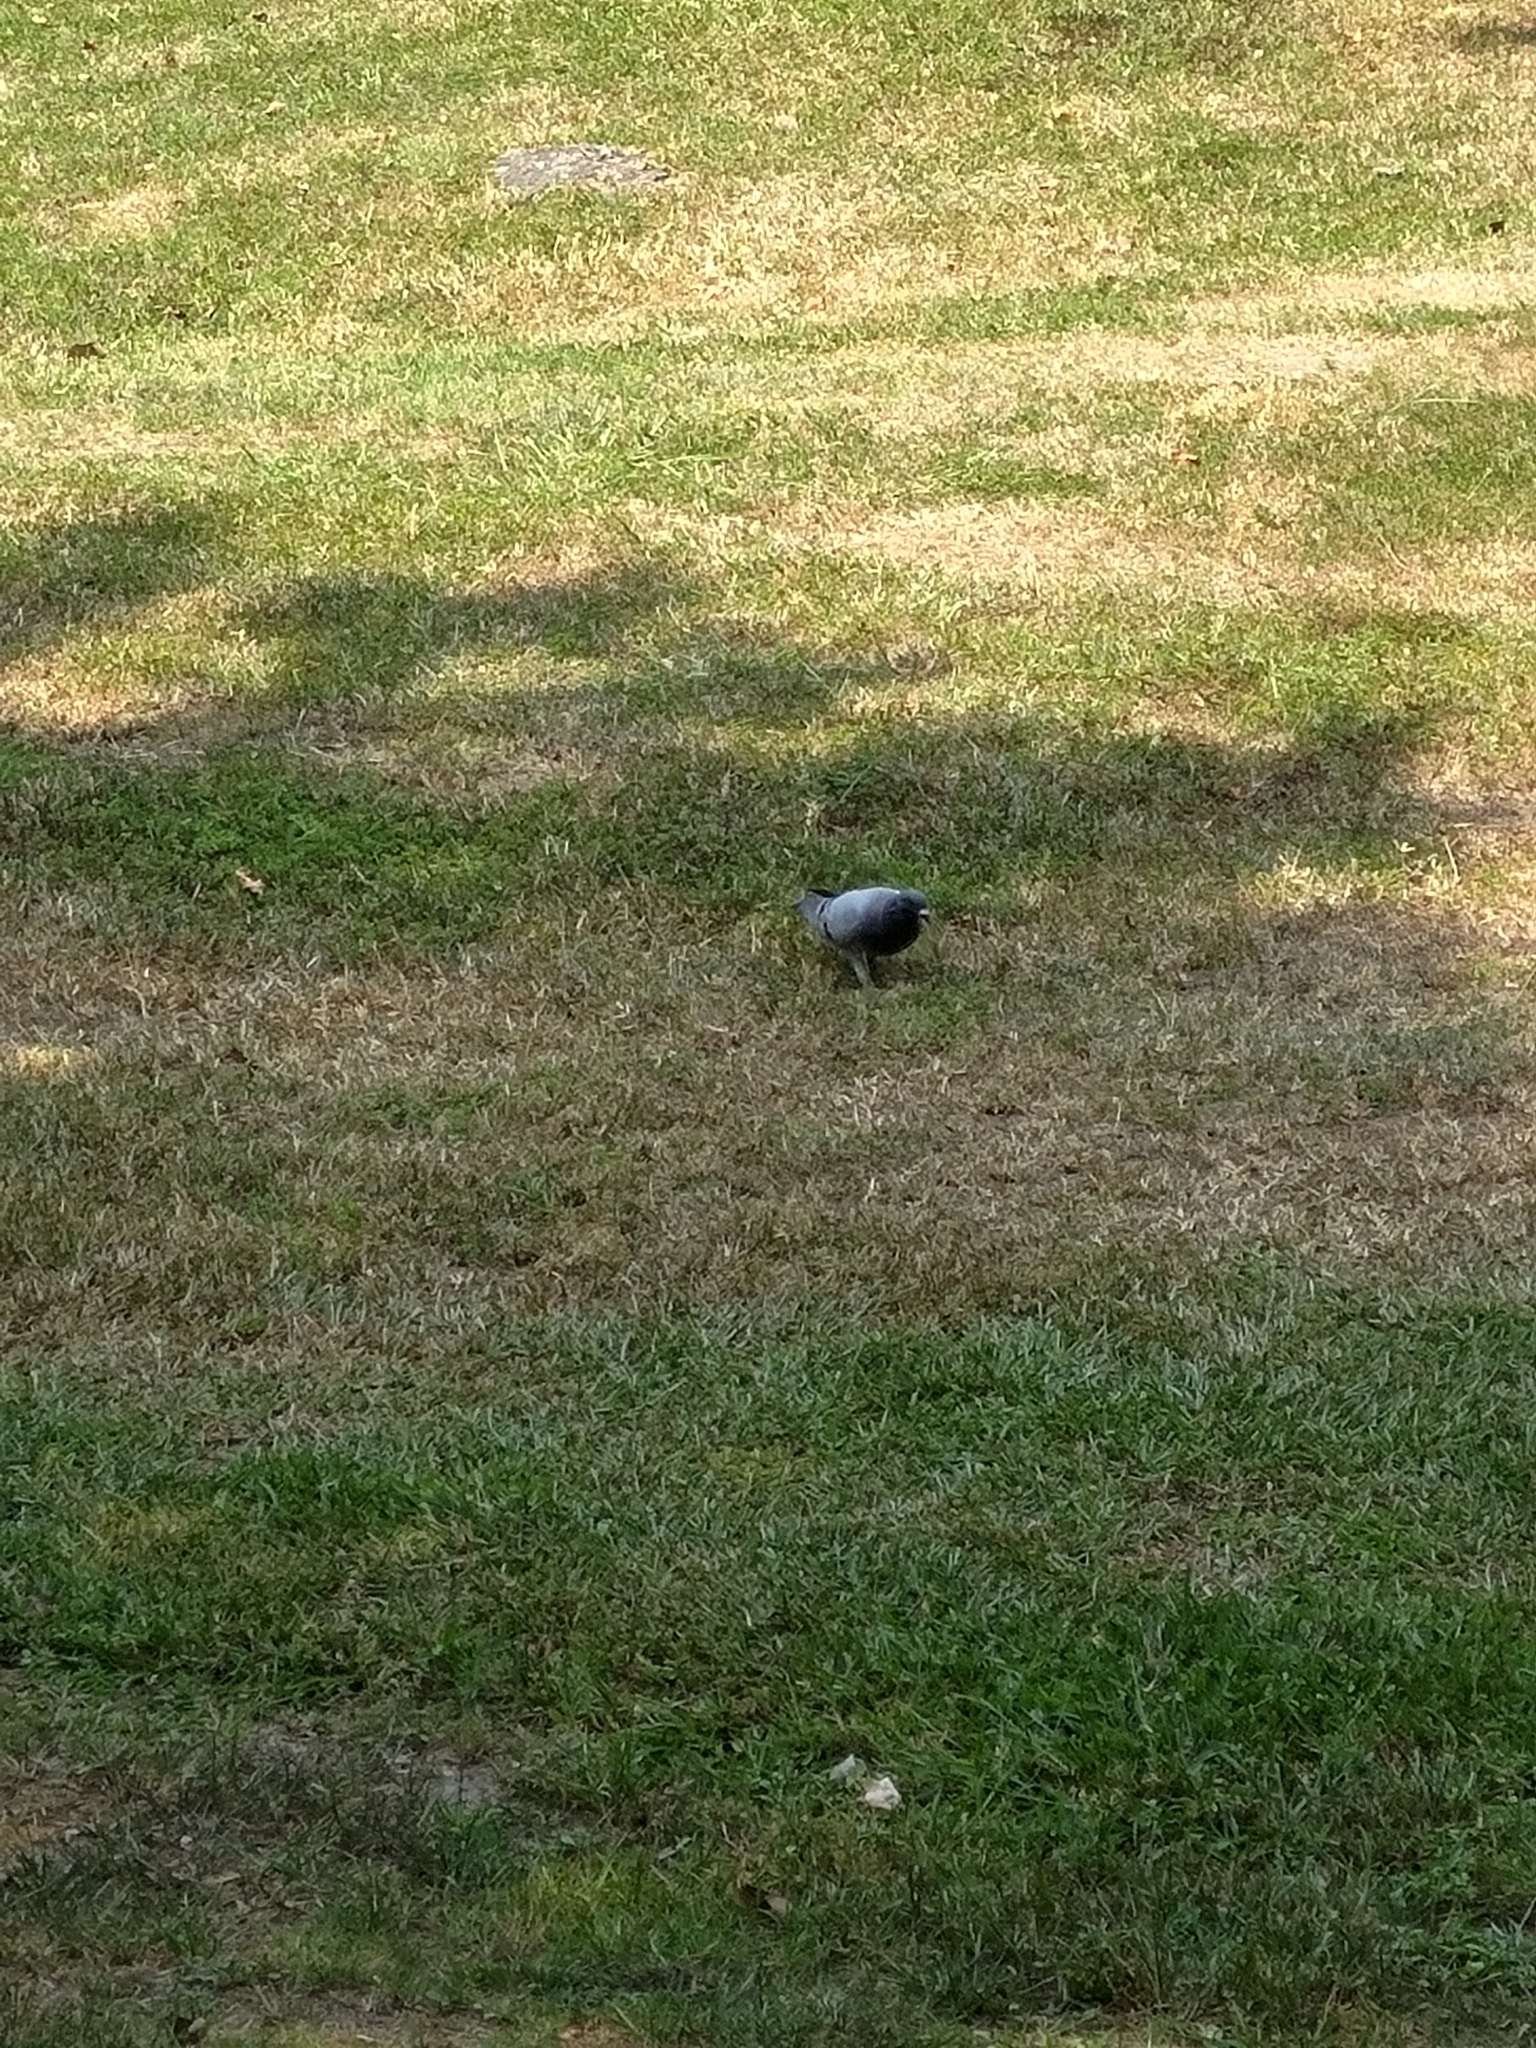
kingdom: Animalia
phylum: Chordata
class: Aves
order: Columbiformes
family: Columbidae
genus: Columba
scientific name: Columba livia
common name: Rock pigeon
